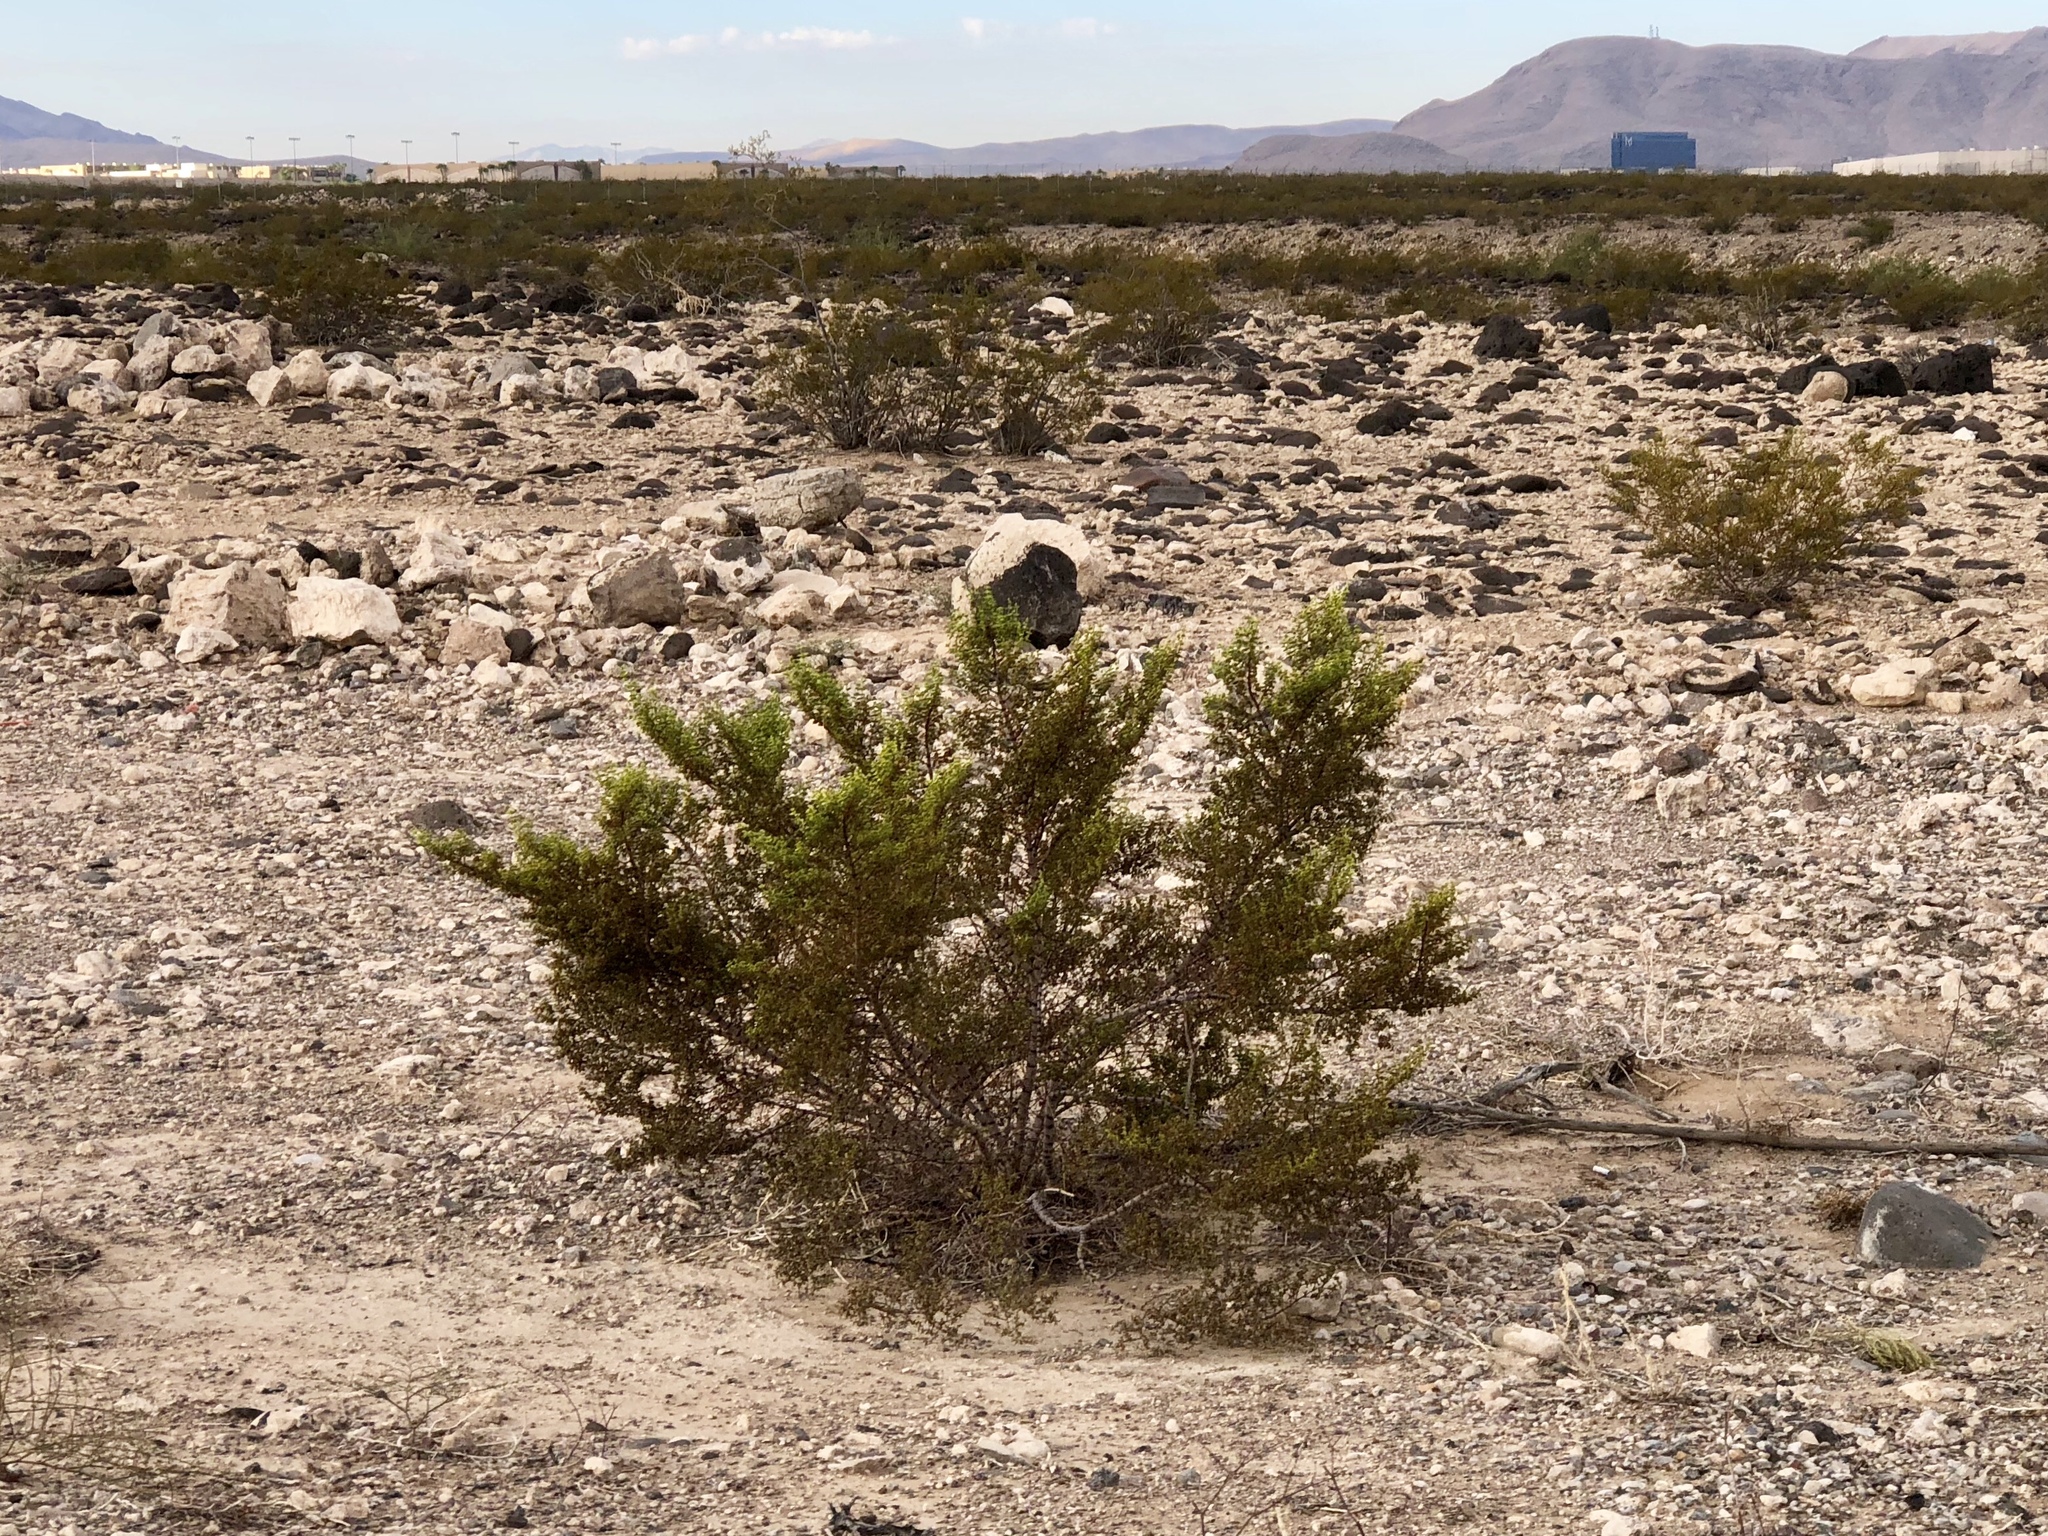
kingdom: Plantae
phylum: Tracheophyta
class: Magnoliopsida
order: Zygophyllales
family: Zygophyllaceae
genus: Larrea
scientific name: Larrea tridentata
